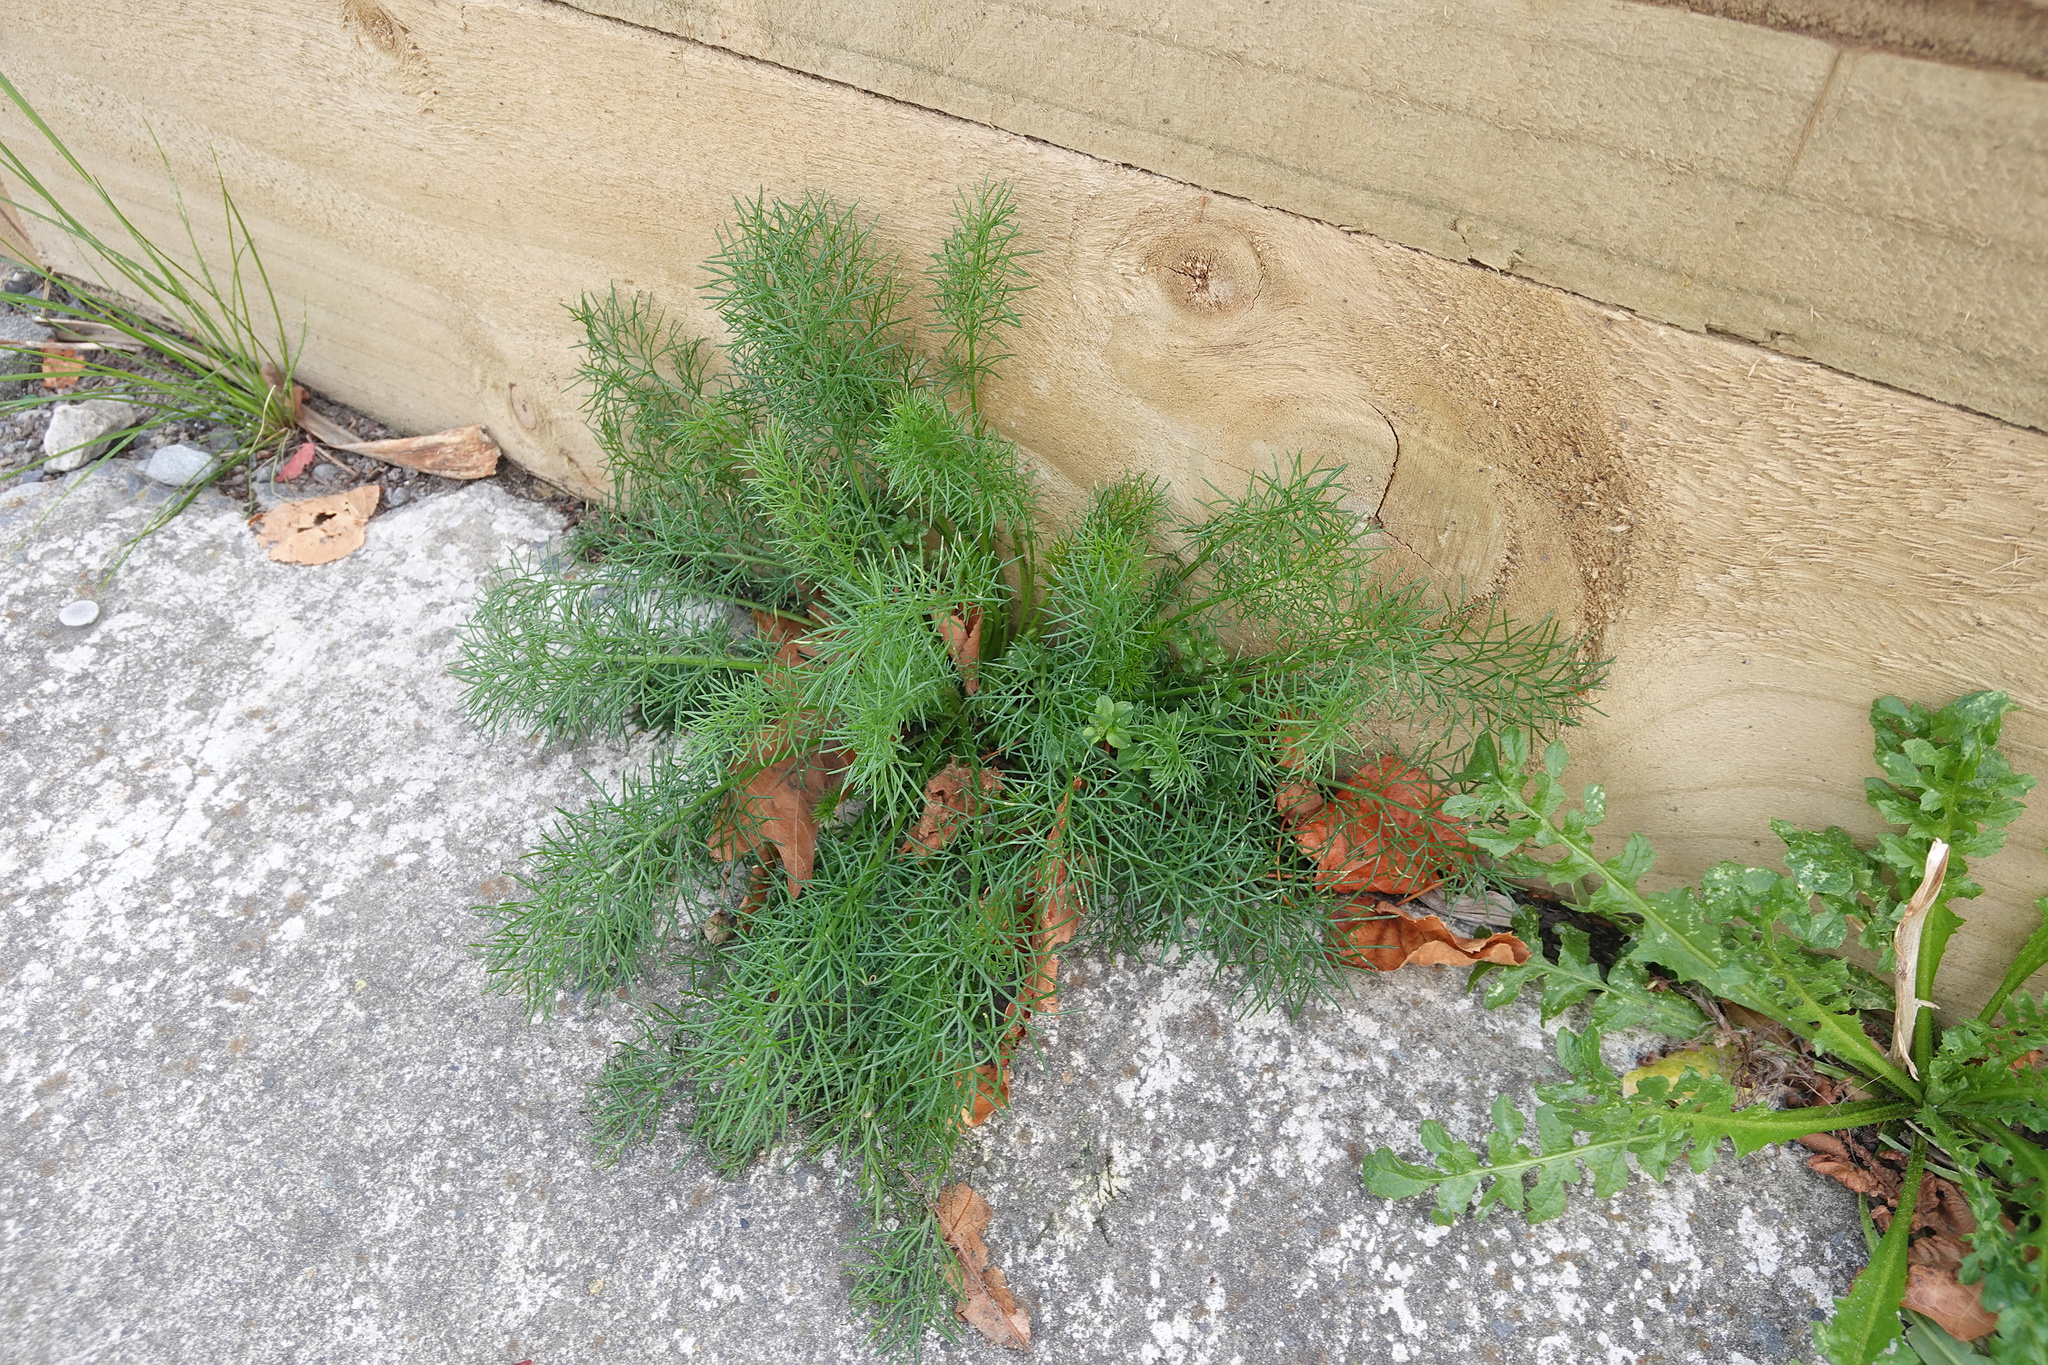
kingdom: Plantae
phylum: Tracheophyta
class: Magnoliopsida
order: Apiales
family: Apiaceae
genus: Foeniculum
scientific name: Foeniculum vulgare
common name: Fennel
